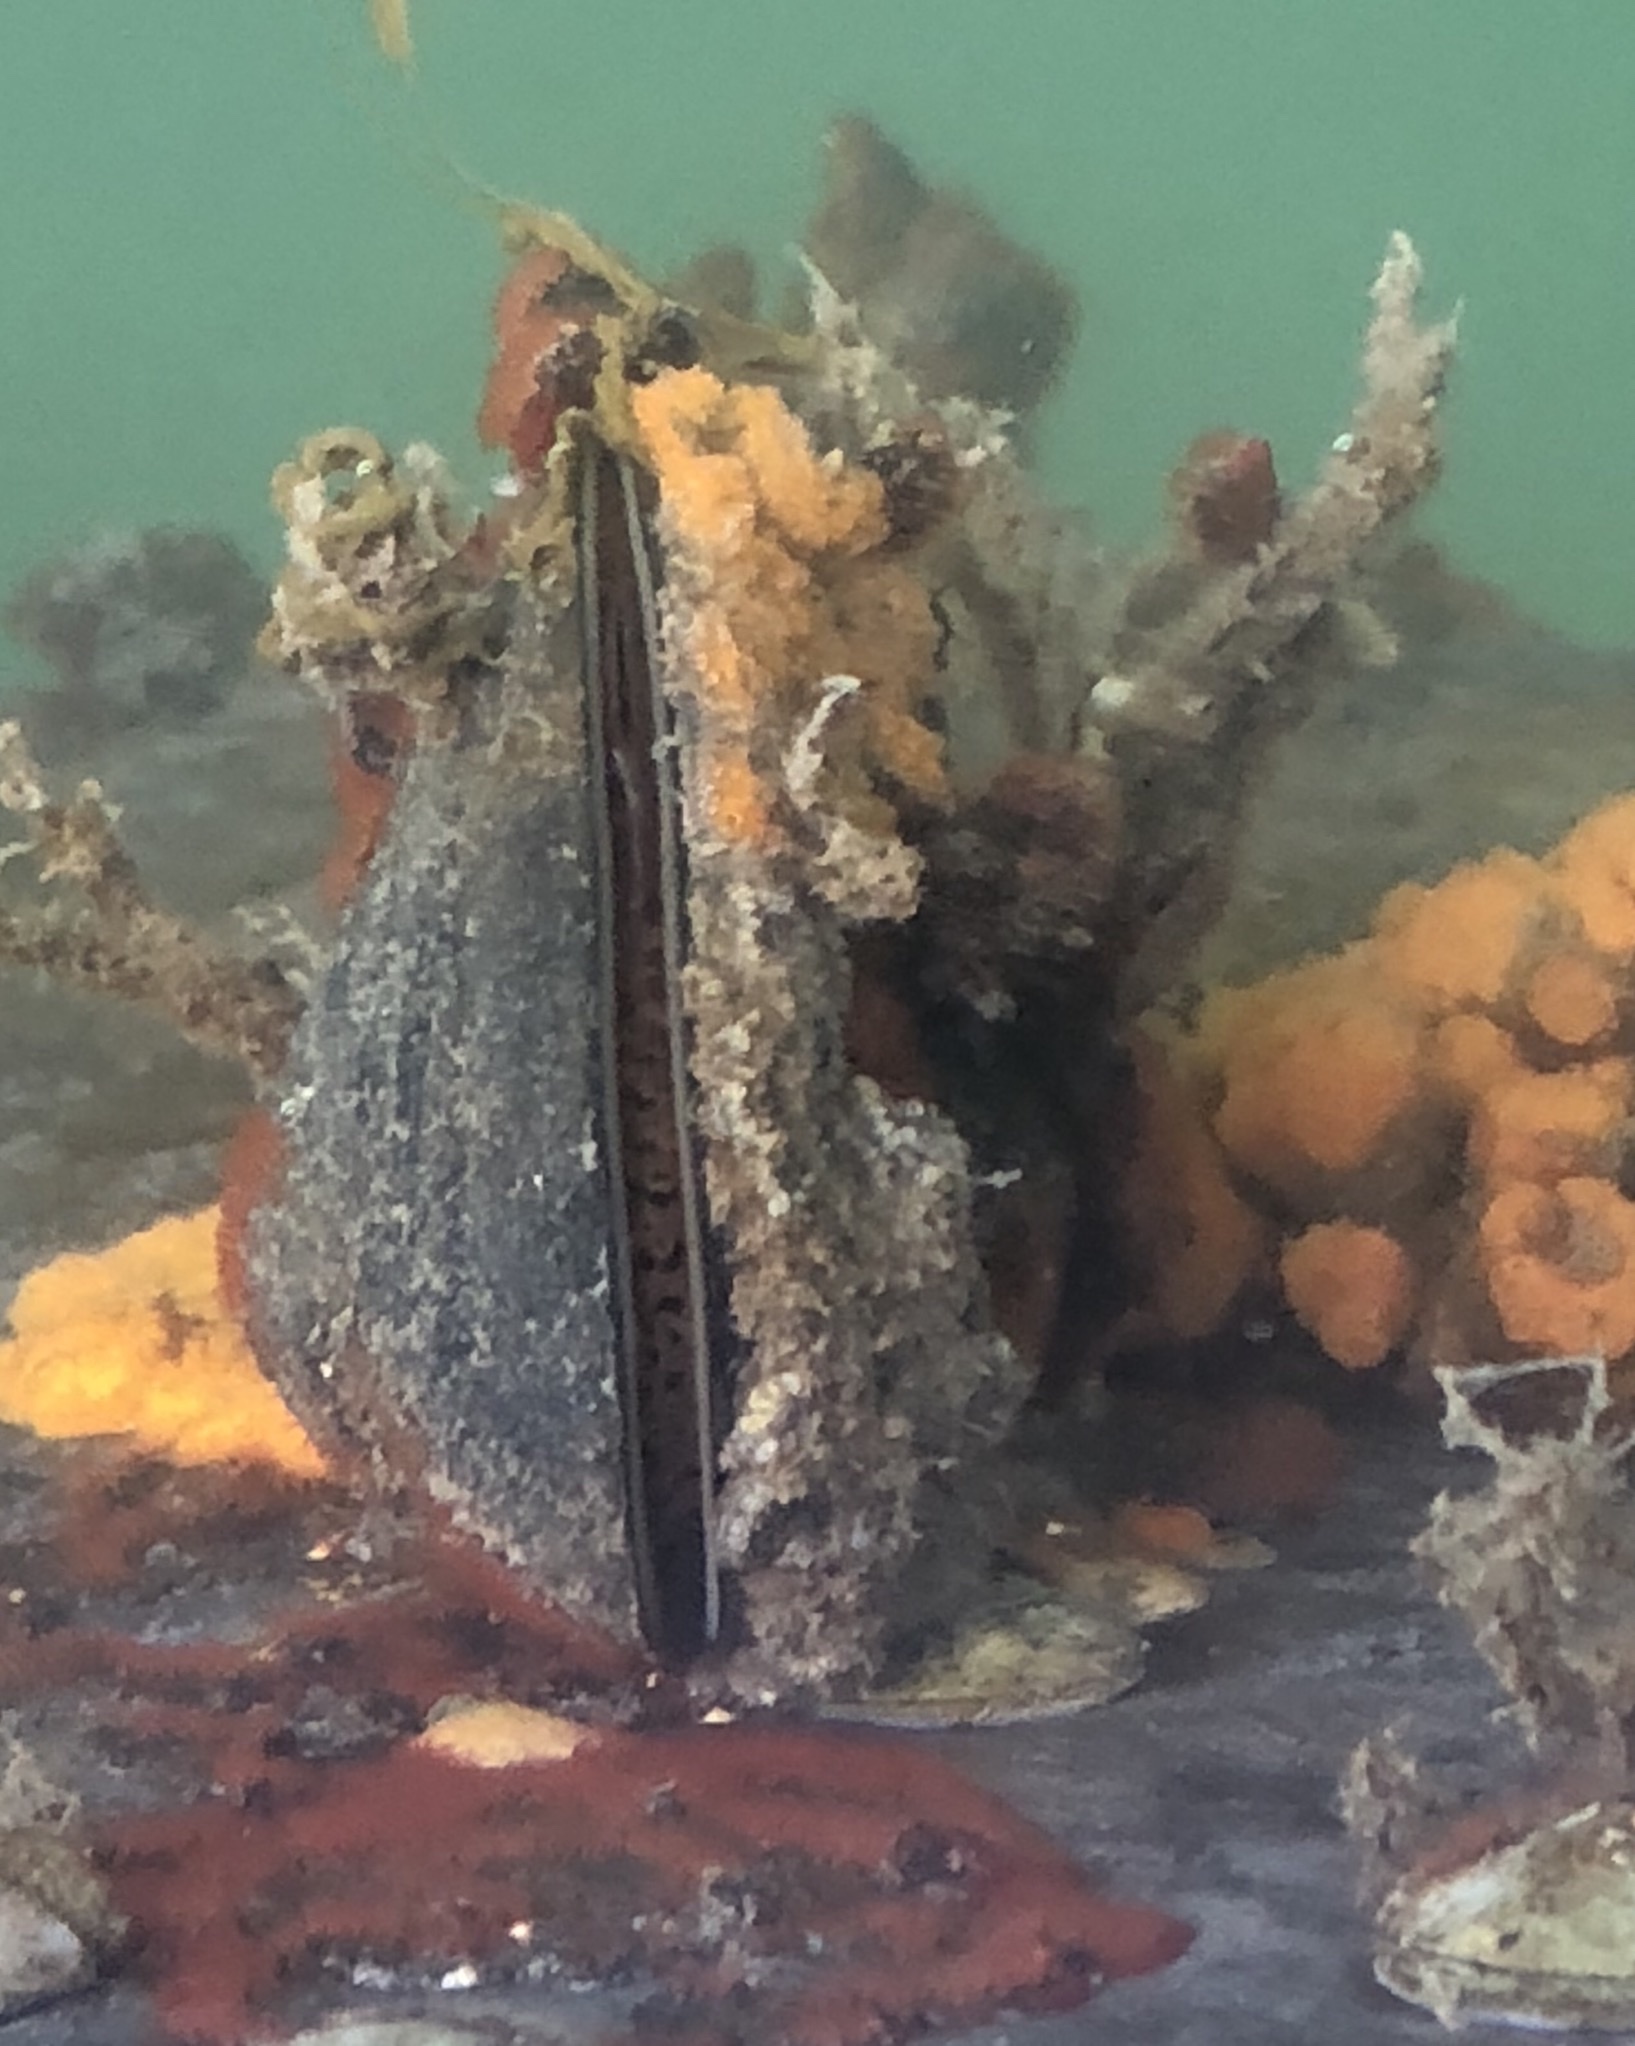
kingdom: Animalia
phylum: Mollusca
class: Bivalvia
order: Mytilida
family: Mytilidae
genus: Mytilus
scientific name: Mytilus
